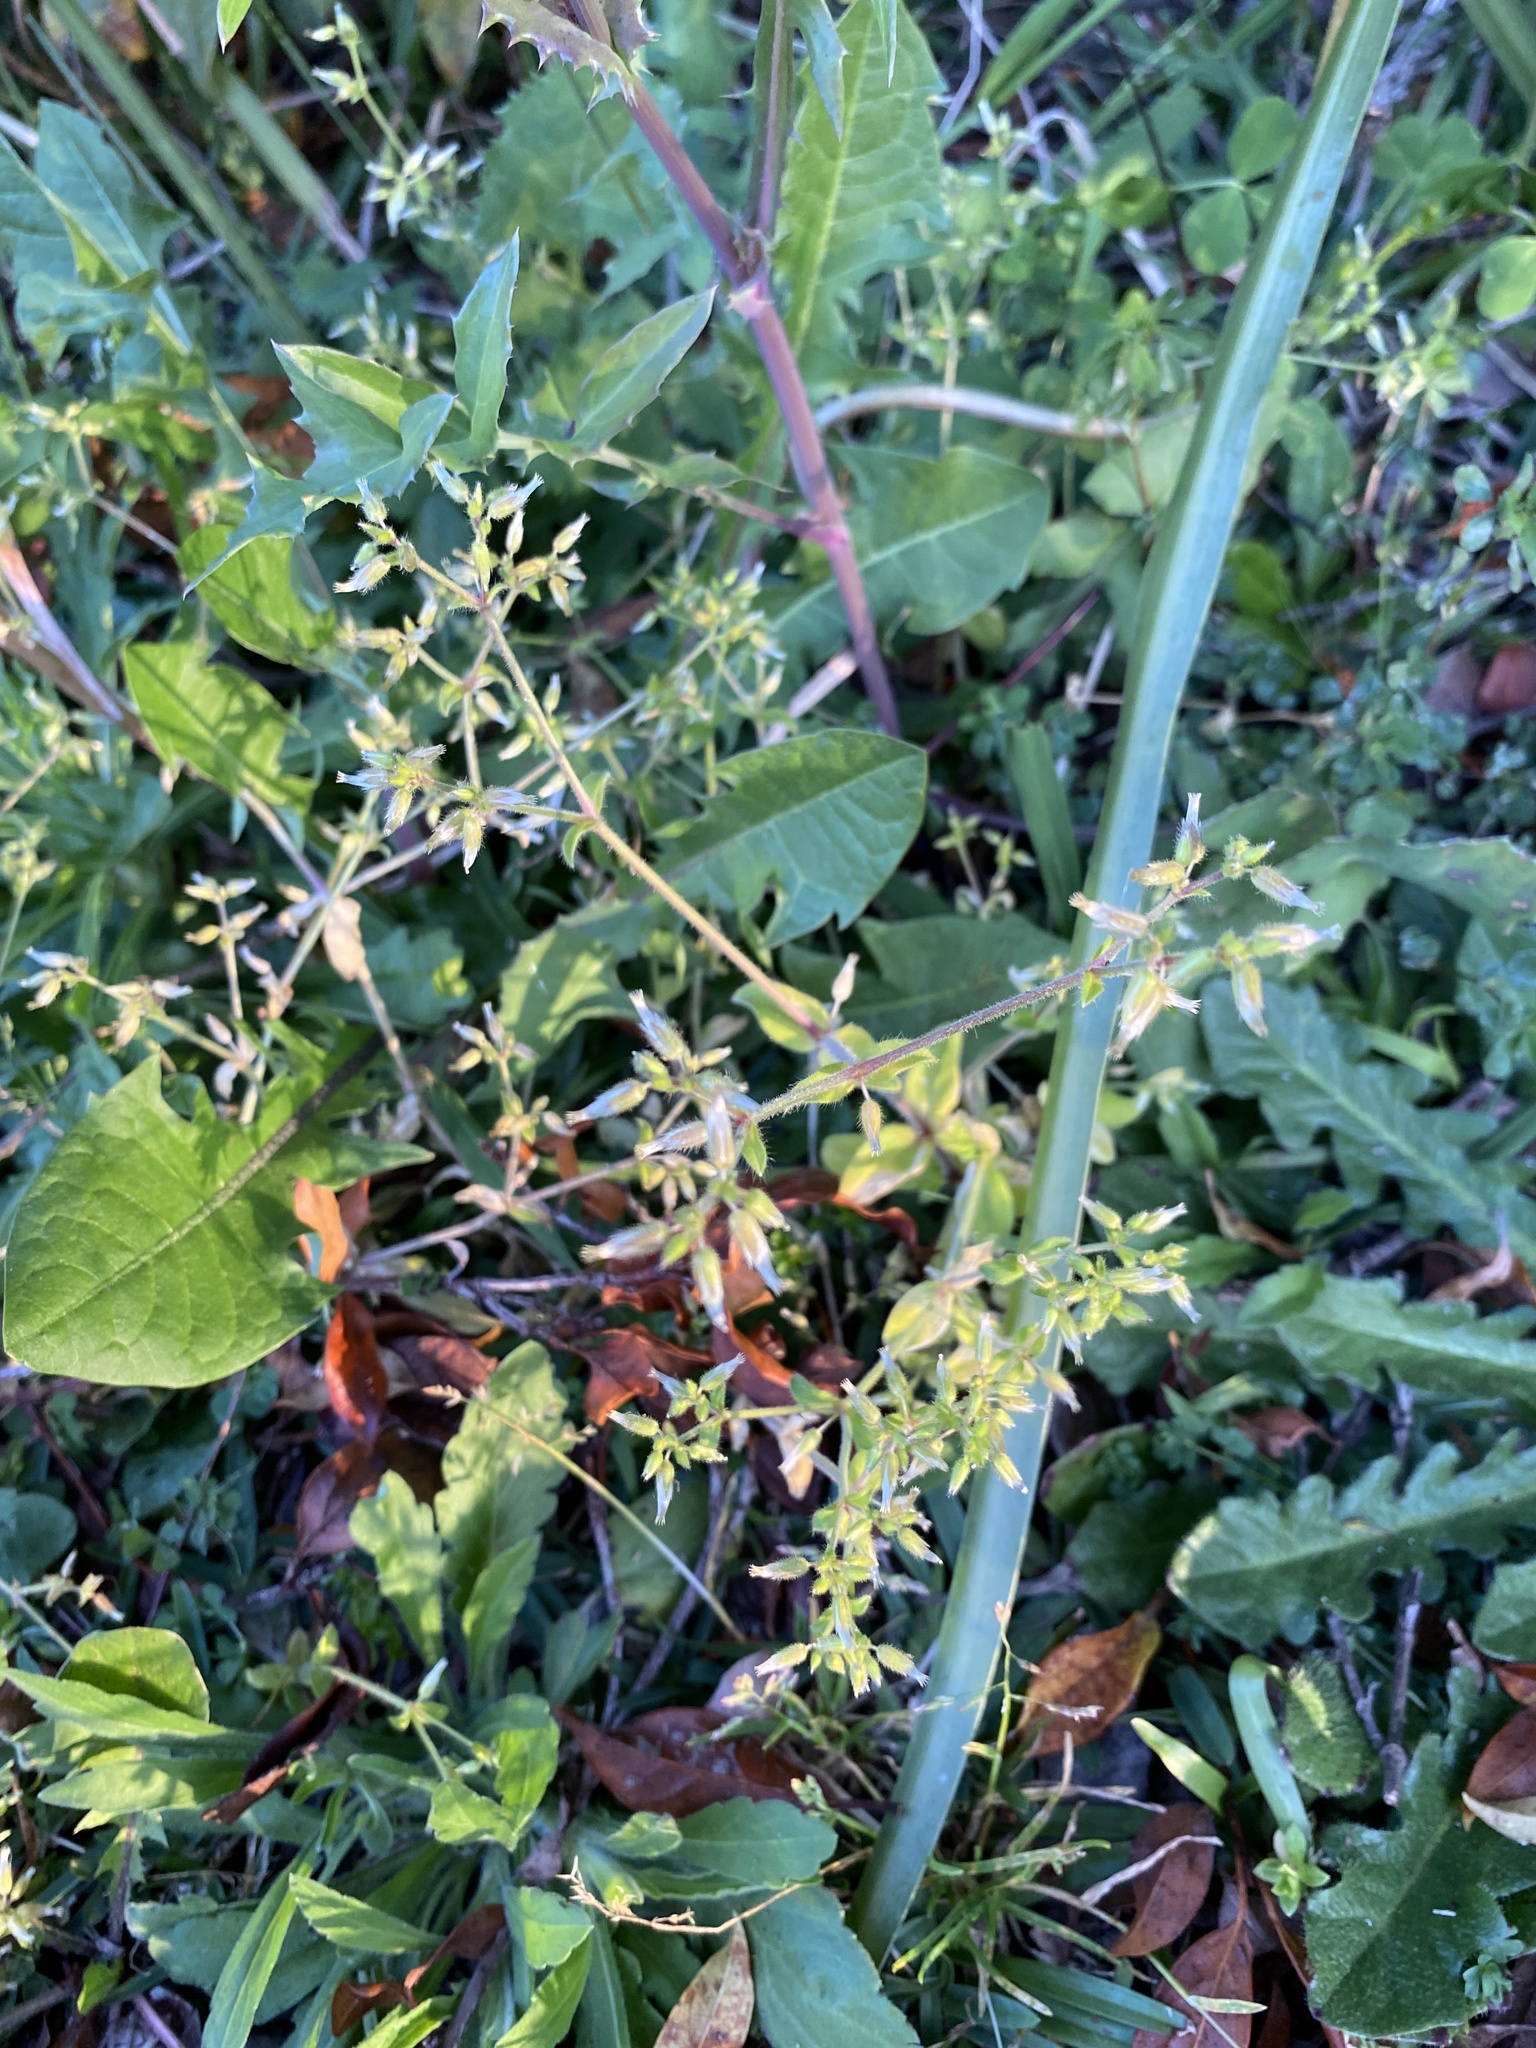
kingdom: Plantae
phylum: Tracheophyta
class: Magnoliopsida
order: Caryophyllales
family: Caryophyllaceae
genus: Cerastium
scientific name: Cerastium glomeratum
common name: Sticky chickweed
